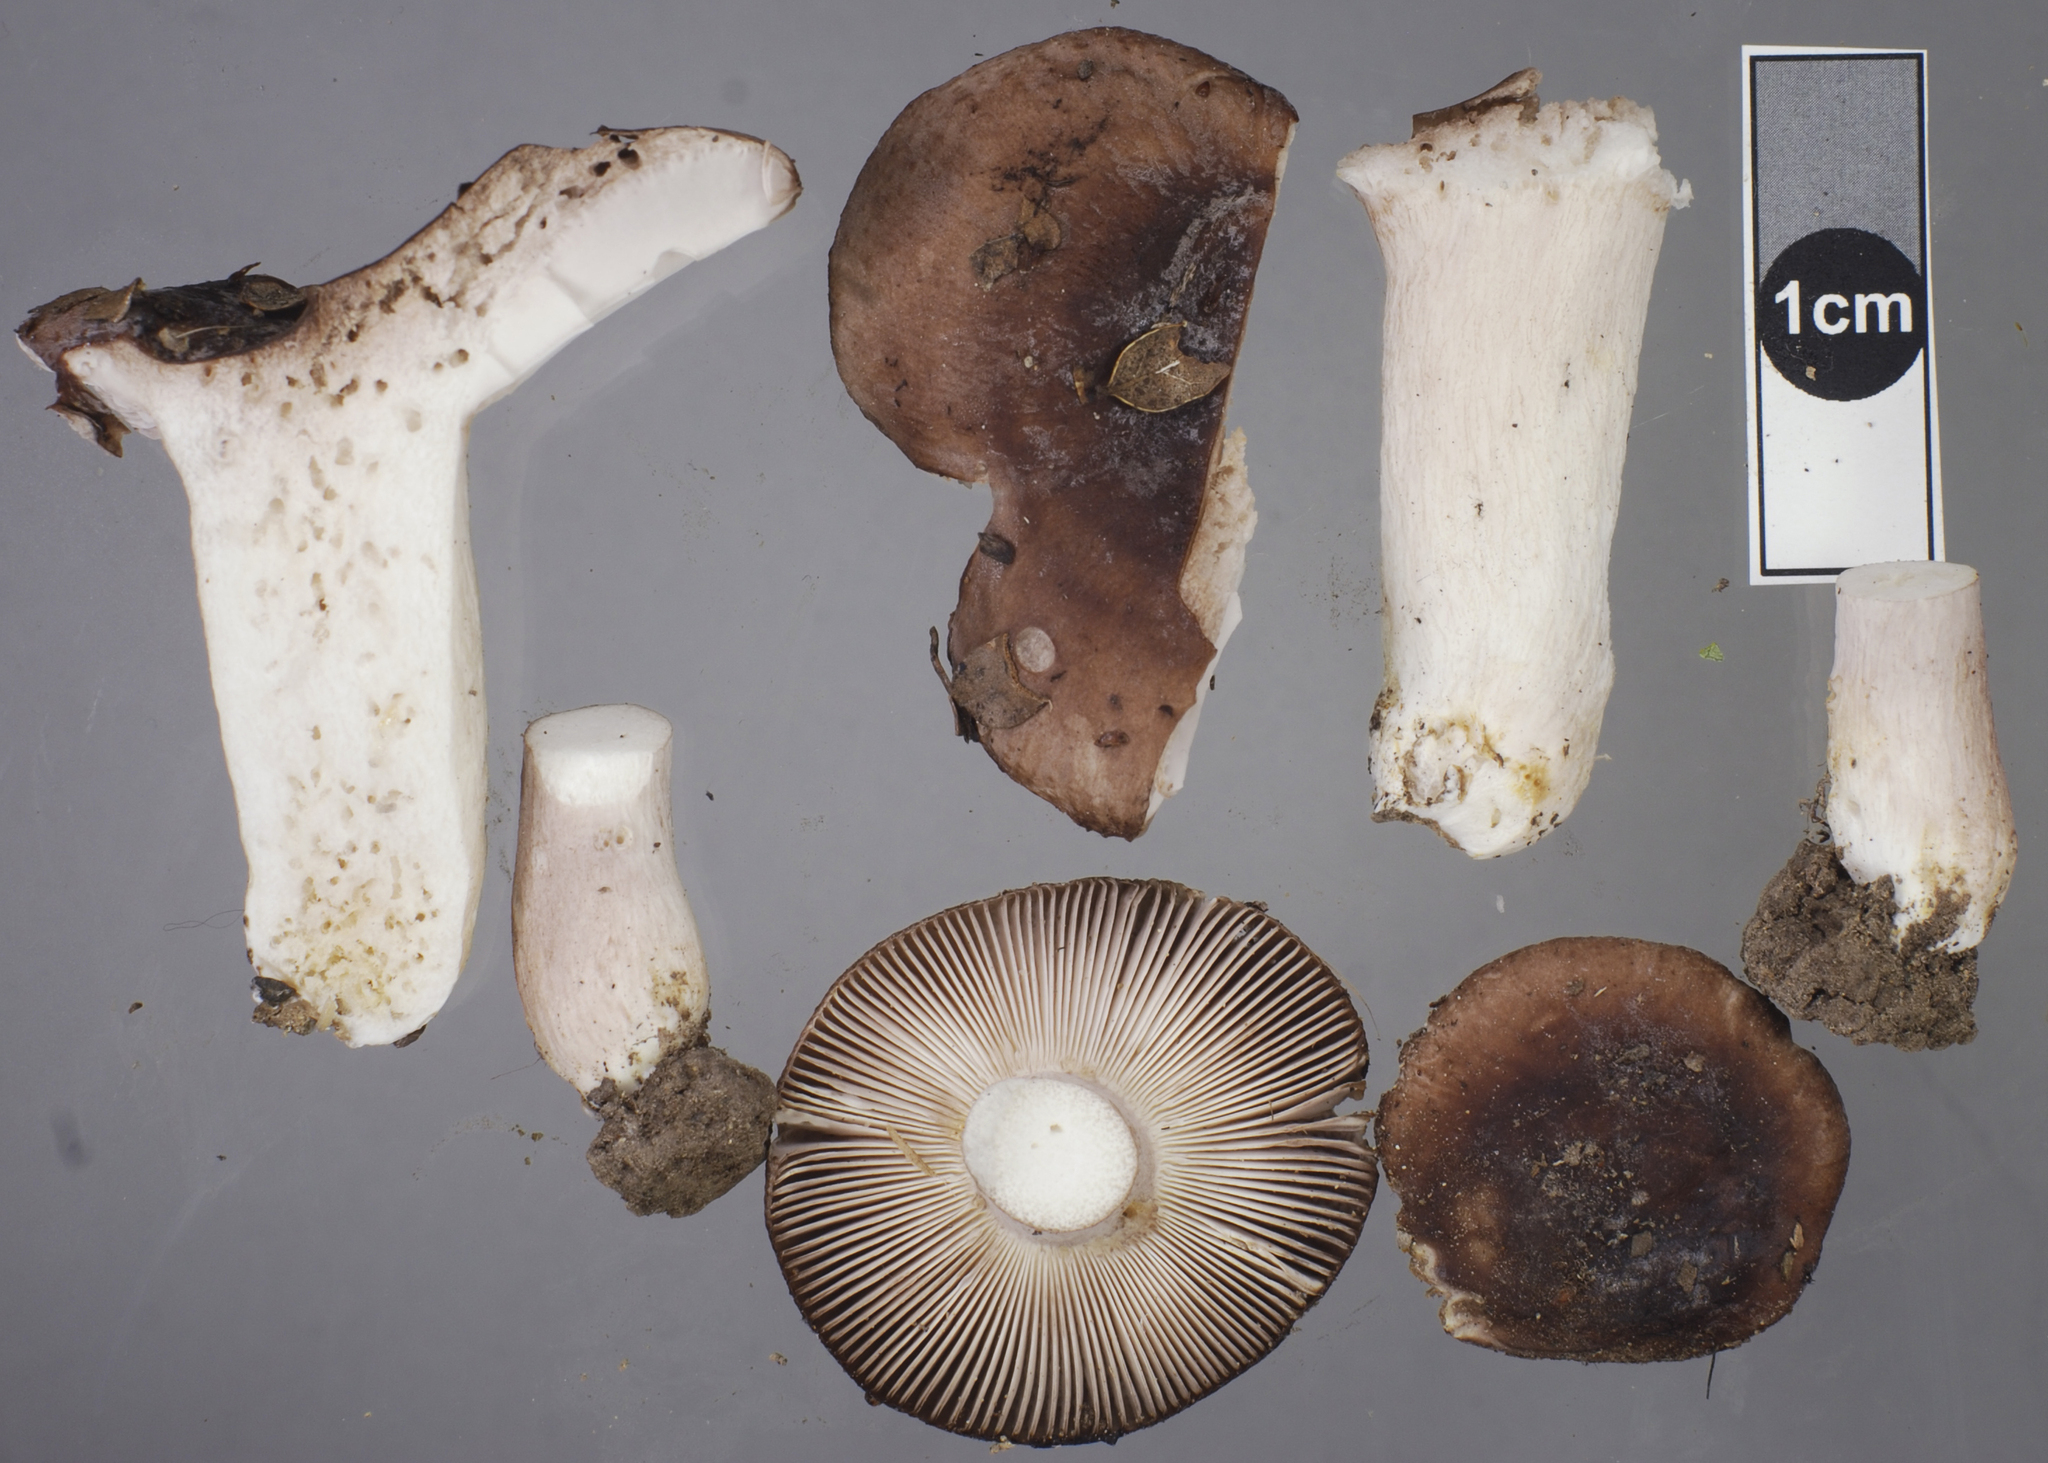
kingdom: Fungi
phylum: Basidiomycota
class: Agaricomycetes
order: Russulales
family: Russulaceae
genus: Russula
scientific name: Russula griseostipitata
